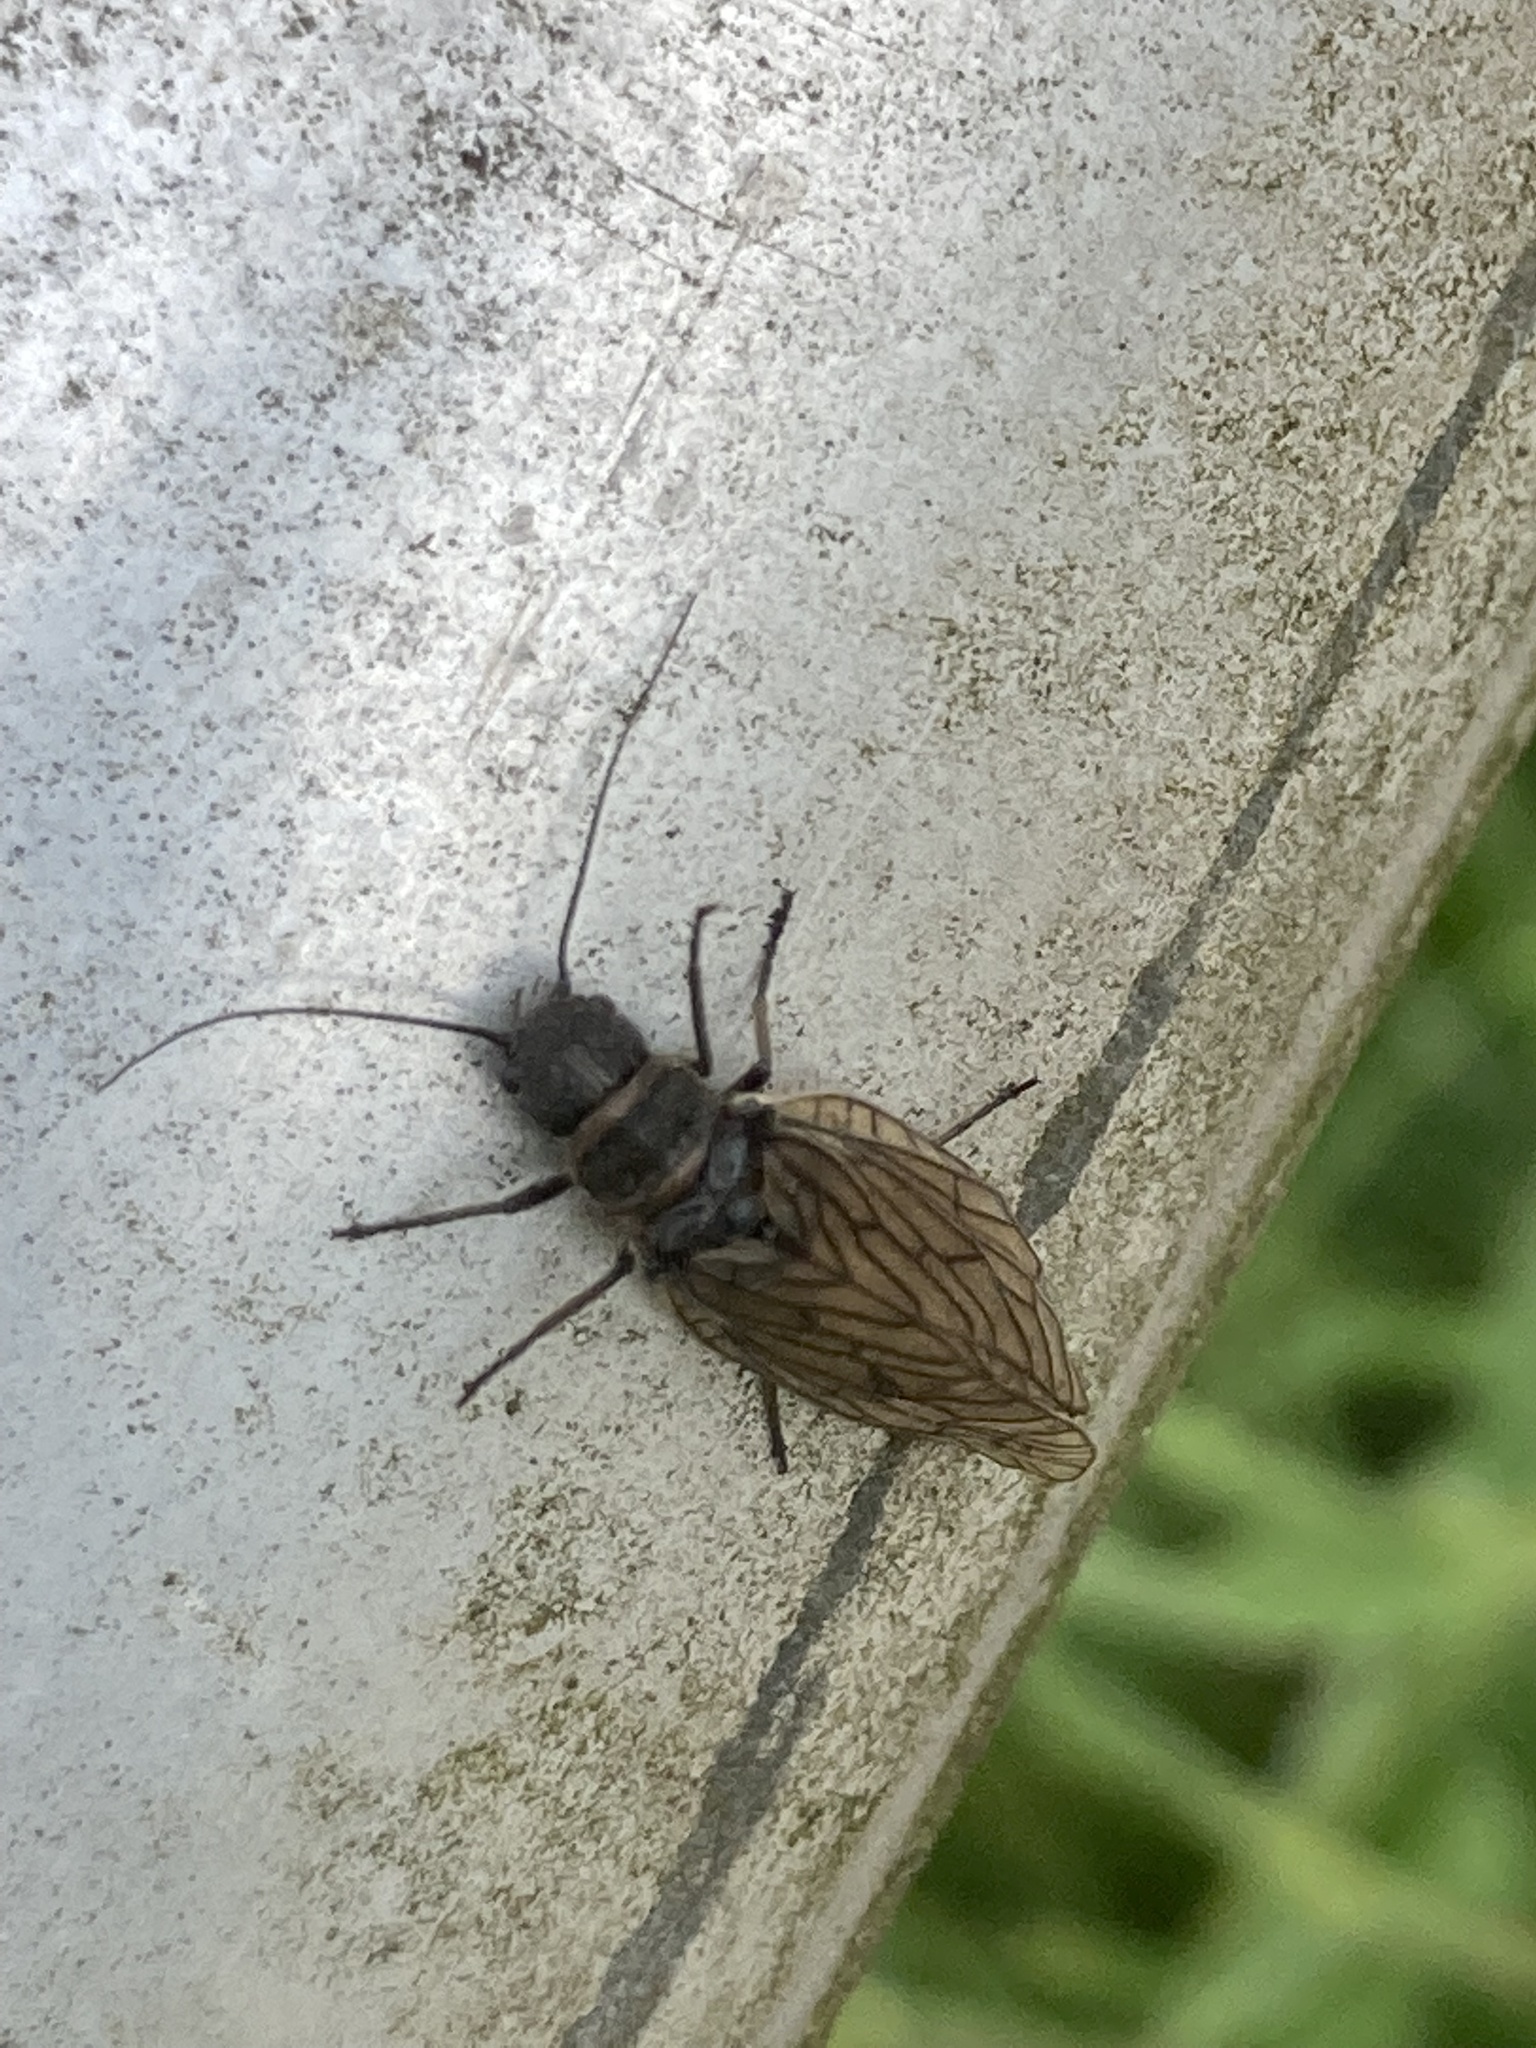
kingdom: Animalia
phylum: Arthropoda
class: Insecta
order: Megaloptera
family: Sialidae
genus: Sialis
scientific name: Sialis
